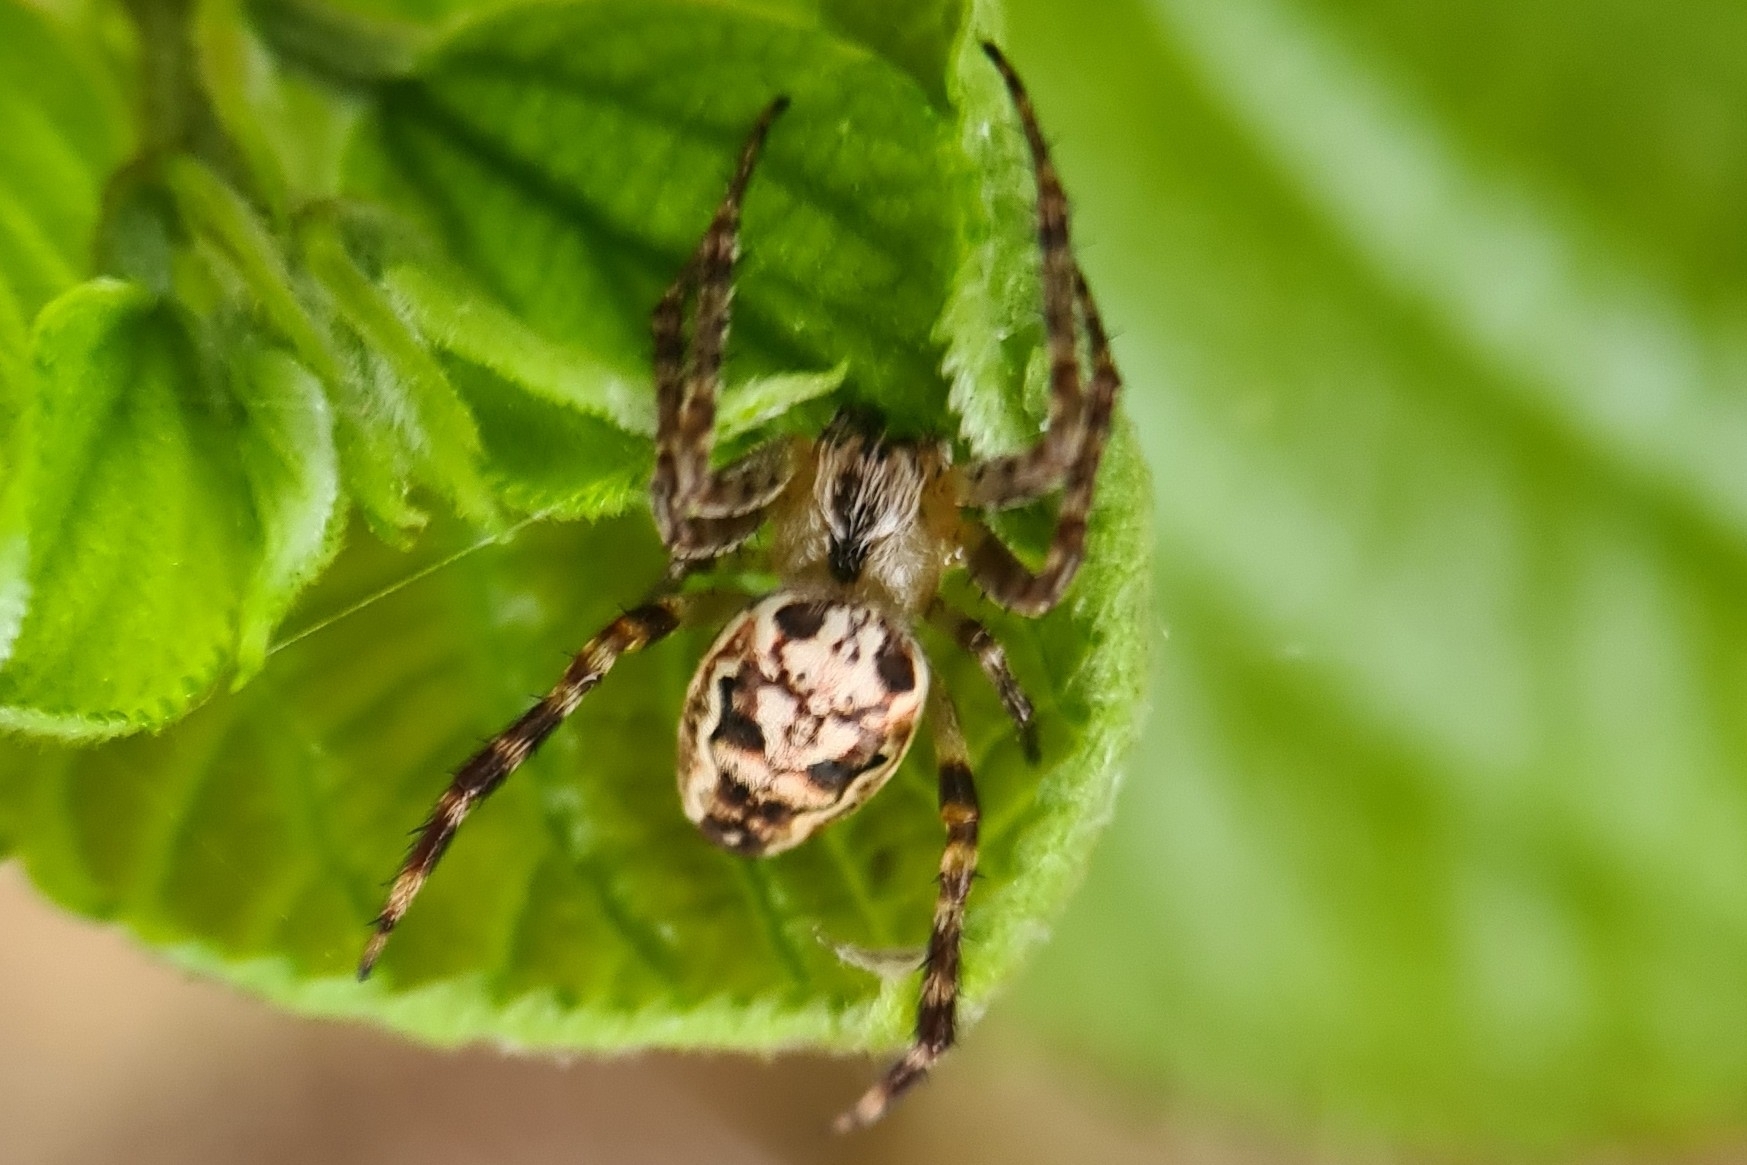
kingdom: Animalia
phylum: Arthropoda
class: Arachnida
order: Araneae
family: Araneidae
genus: Plebs
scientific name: Plebs eburnus
